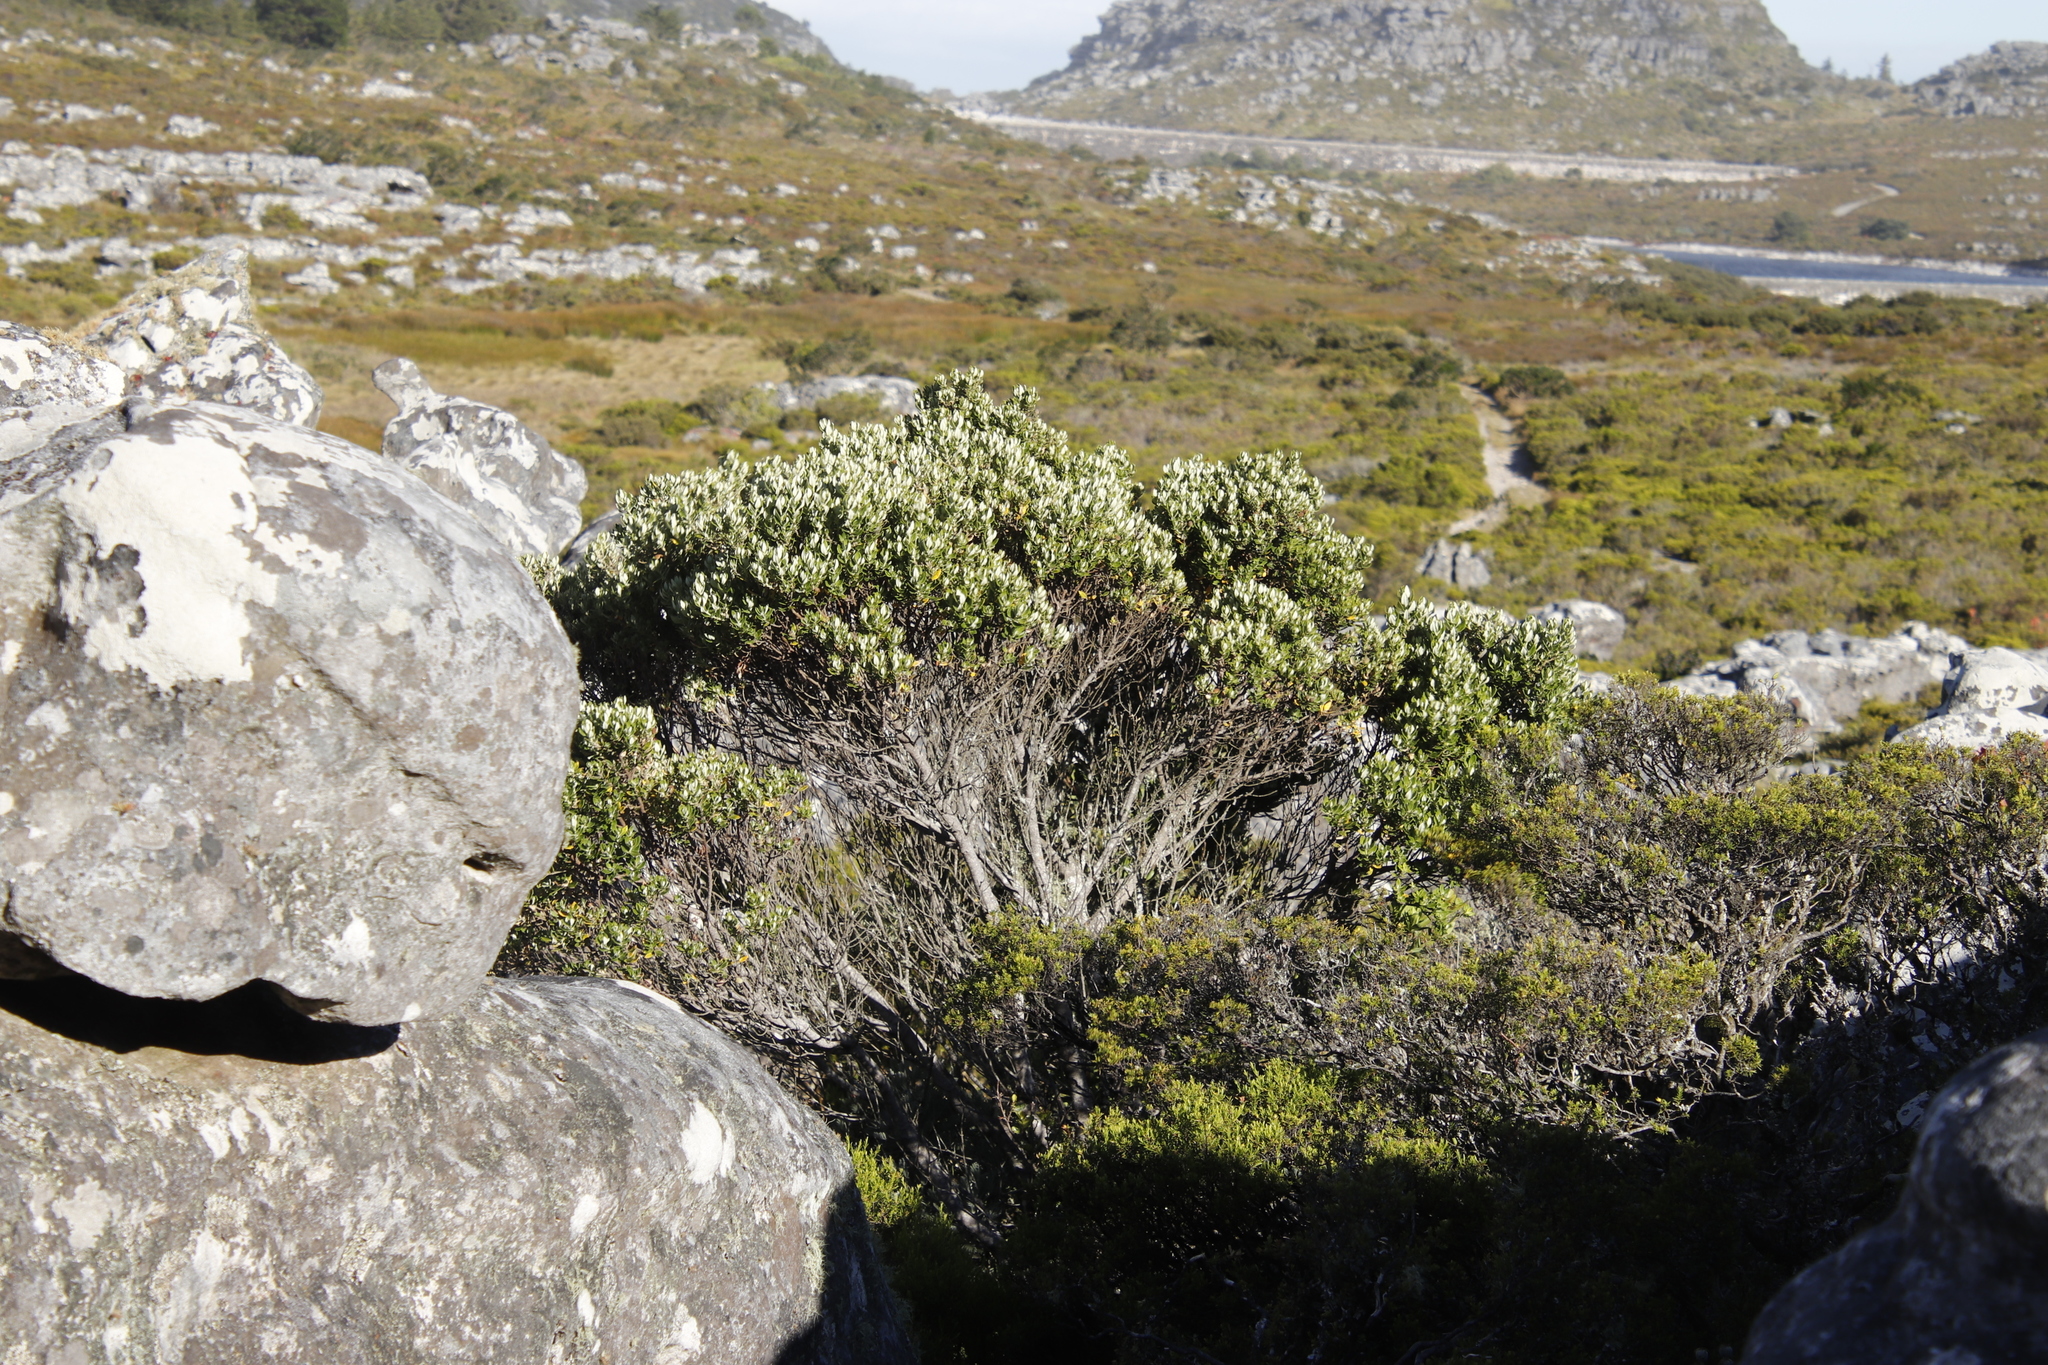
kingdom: Plantae
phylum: Tracheophyta
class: Magnoliopsida
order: Rosales
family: Rhamnaceae
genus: Phylica
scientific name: Phylica buxifolia
